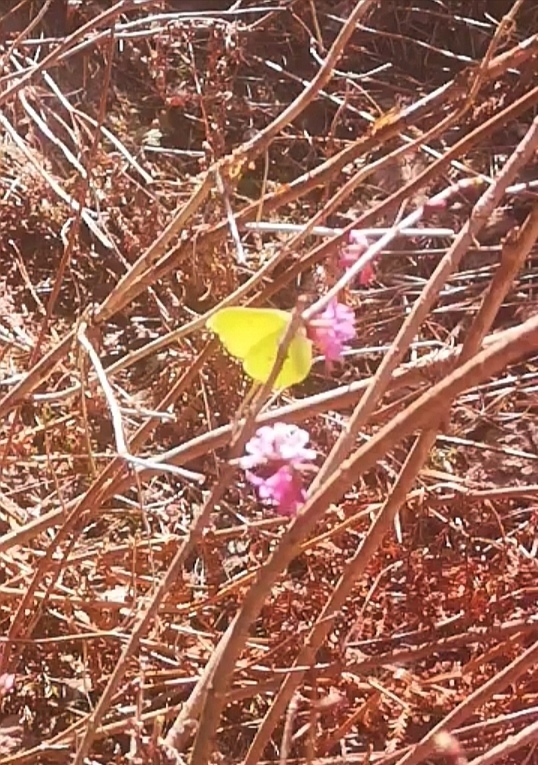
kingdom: Animalia
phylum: Arthropoda
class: Insecta
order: Lepidoptera
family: Pieridae
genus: Gonepteryx
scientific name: Gonepteryx rhamni
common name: Brimstone
